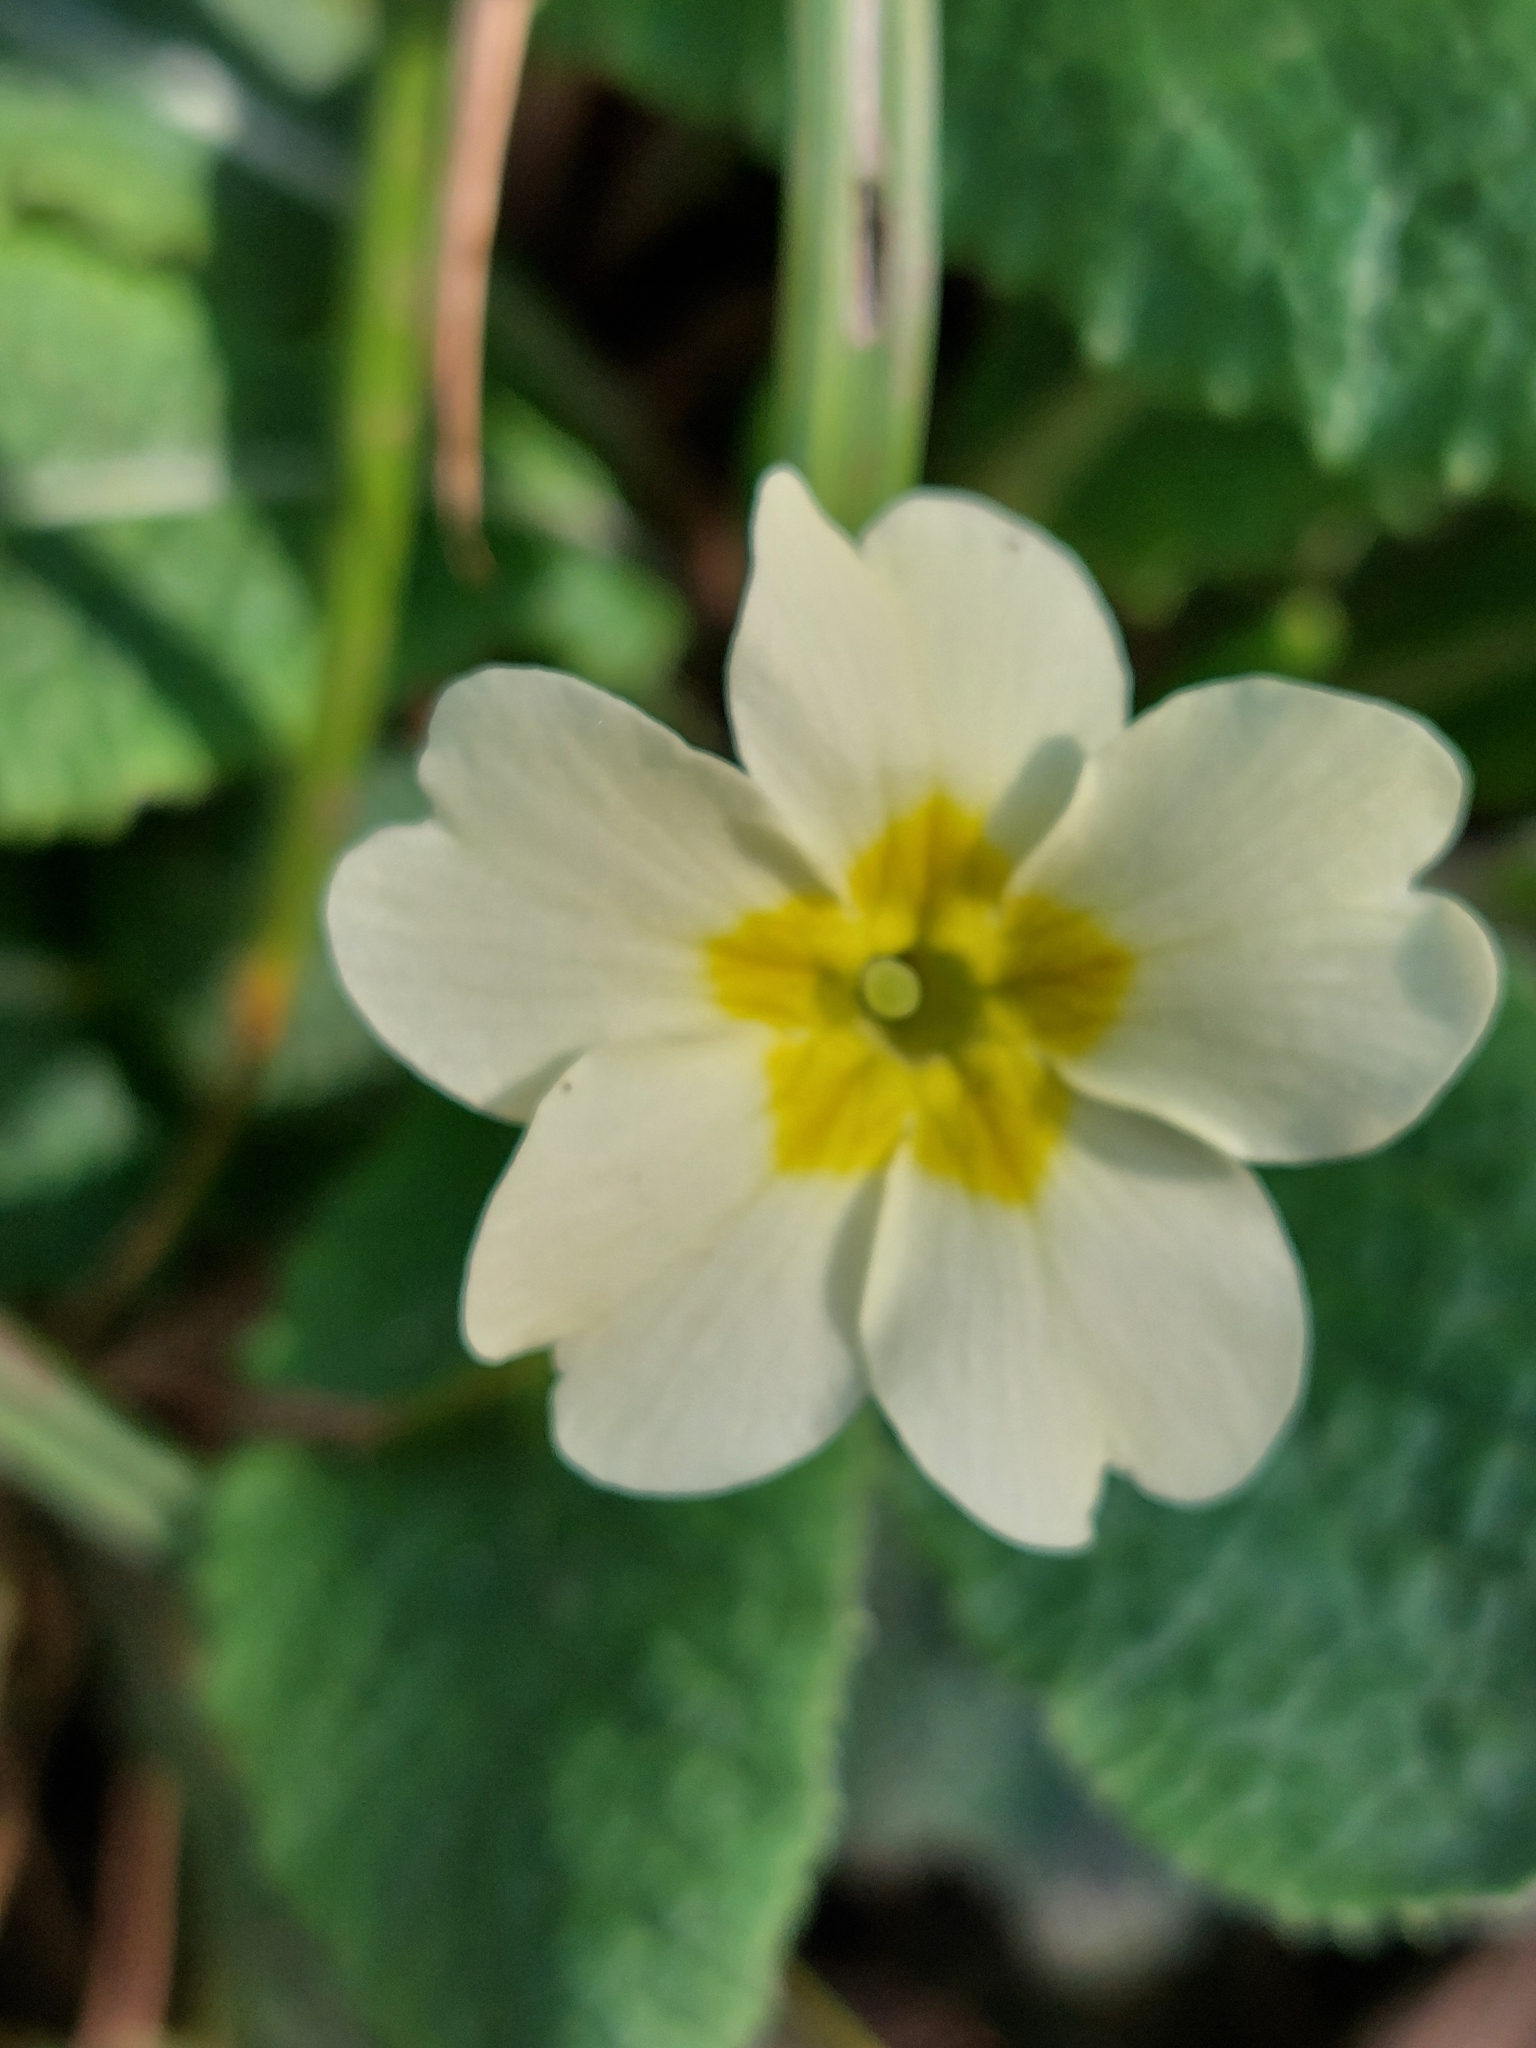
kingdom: Plantae
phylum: Tracheophyta
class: Magnoliopsida
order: Ericales
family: Primulaceae
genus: Primula
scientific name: Primula vulgaris
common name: Primrose
